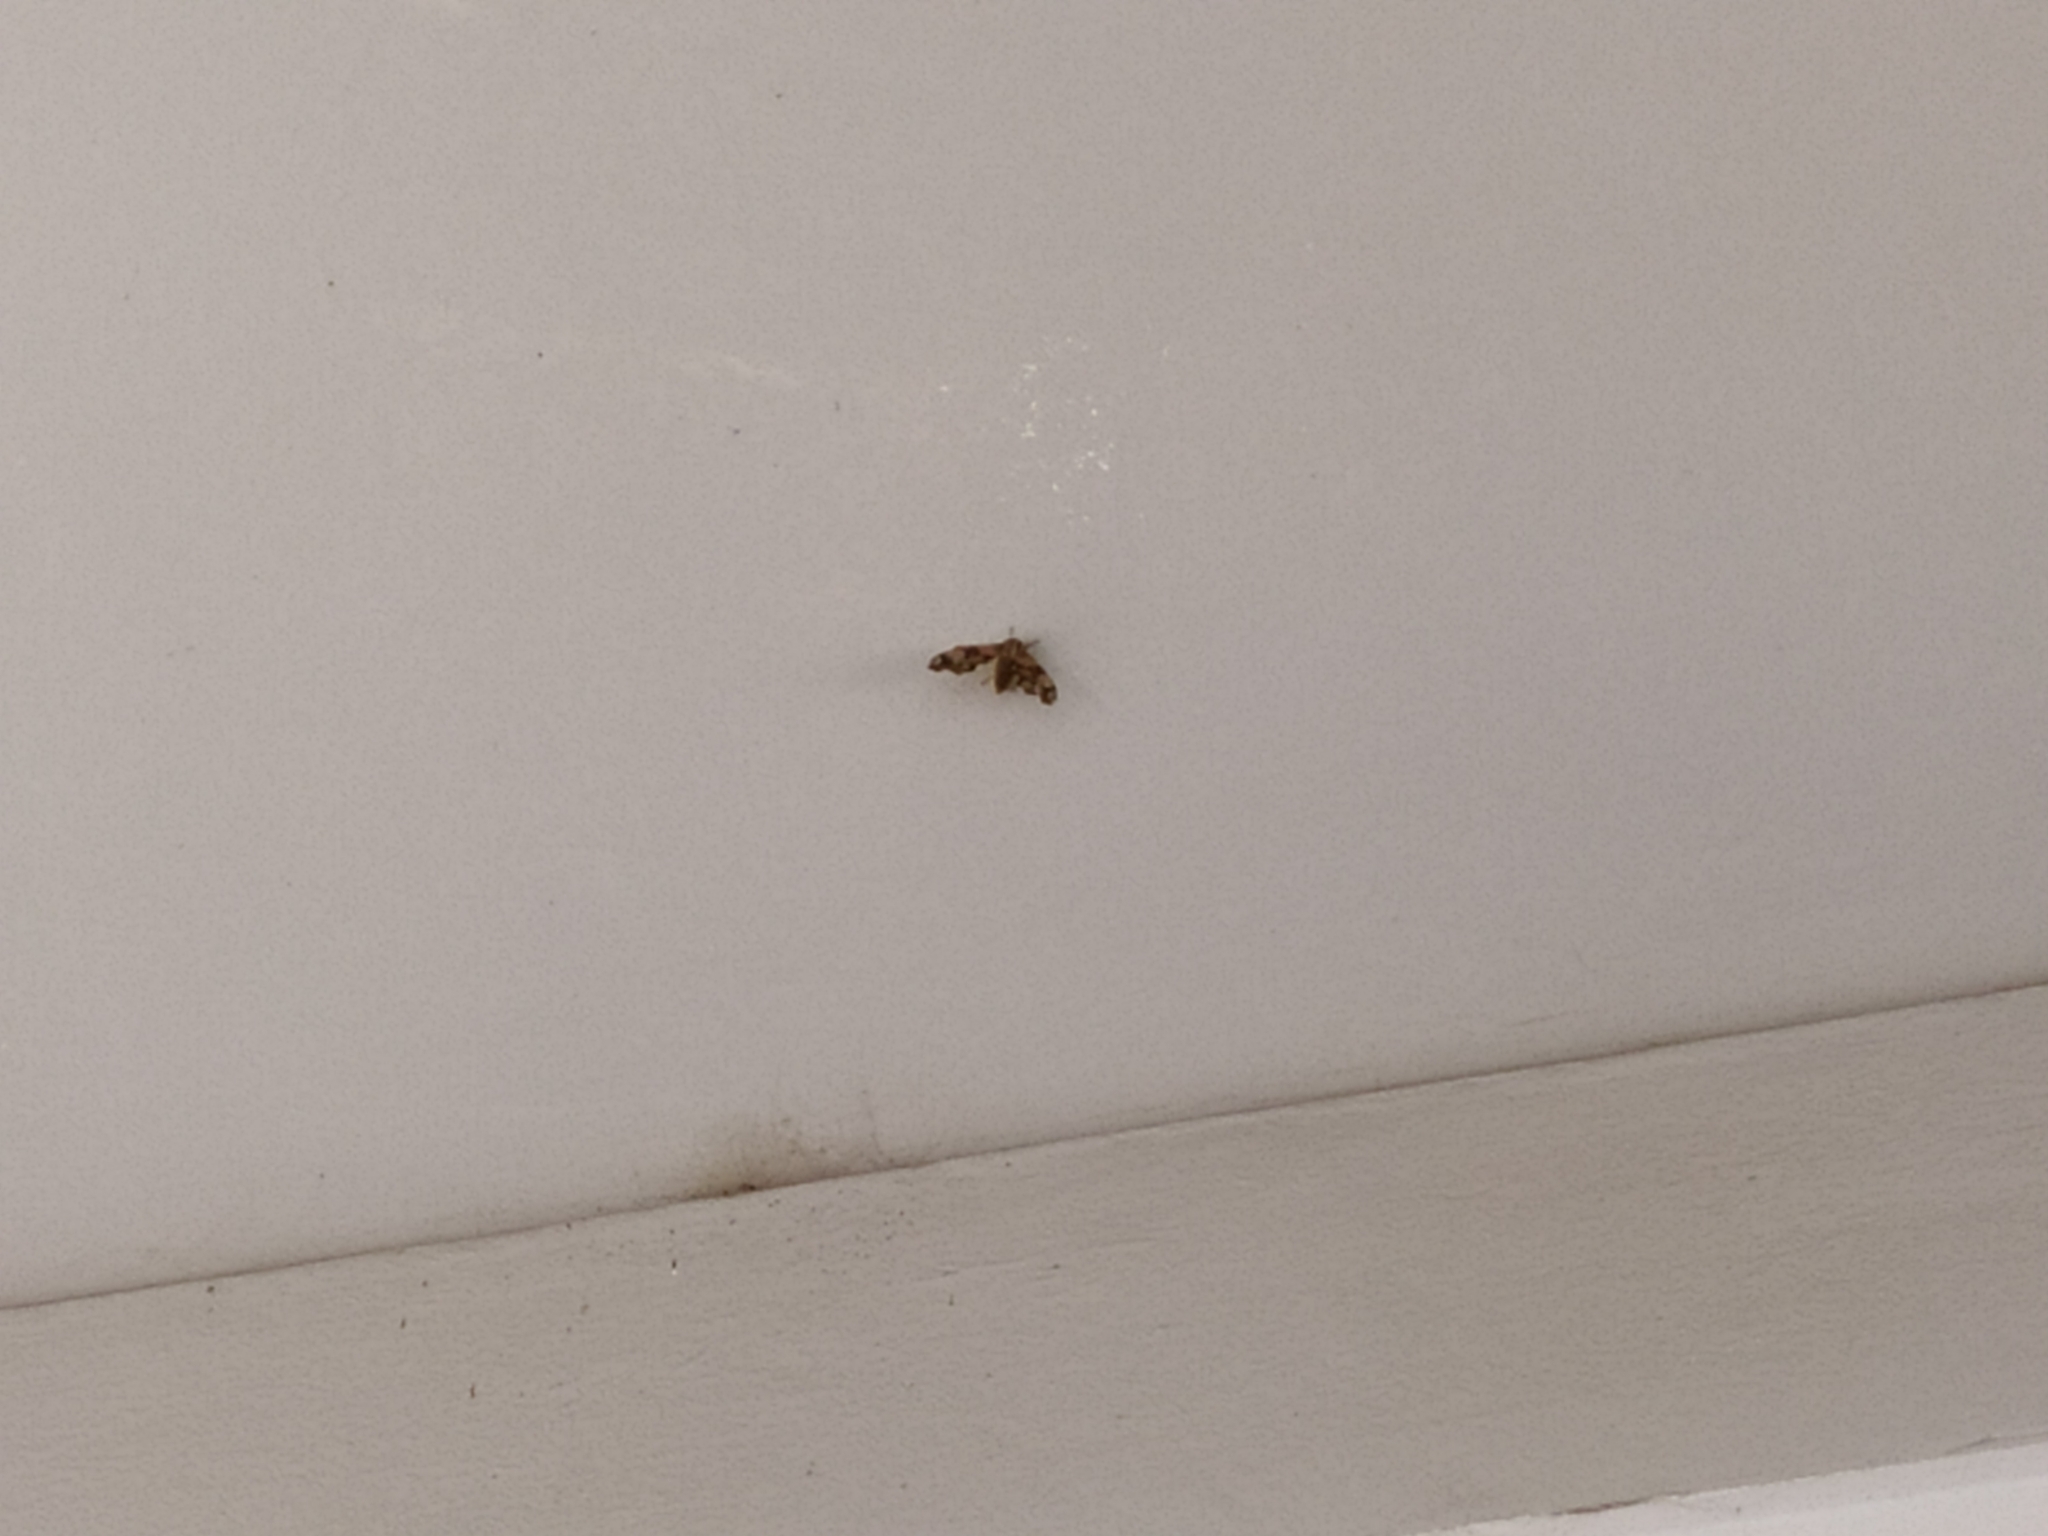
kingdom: Animalia
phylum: Arthropoda
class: Insecta
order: Lepidoptera
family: Sphingidae
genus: Mimas
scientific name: Mimas tiliae
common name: Lime hawk-moth
